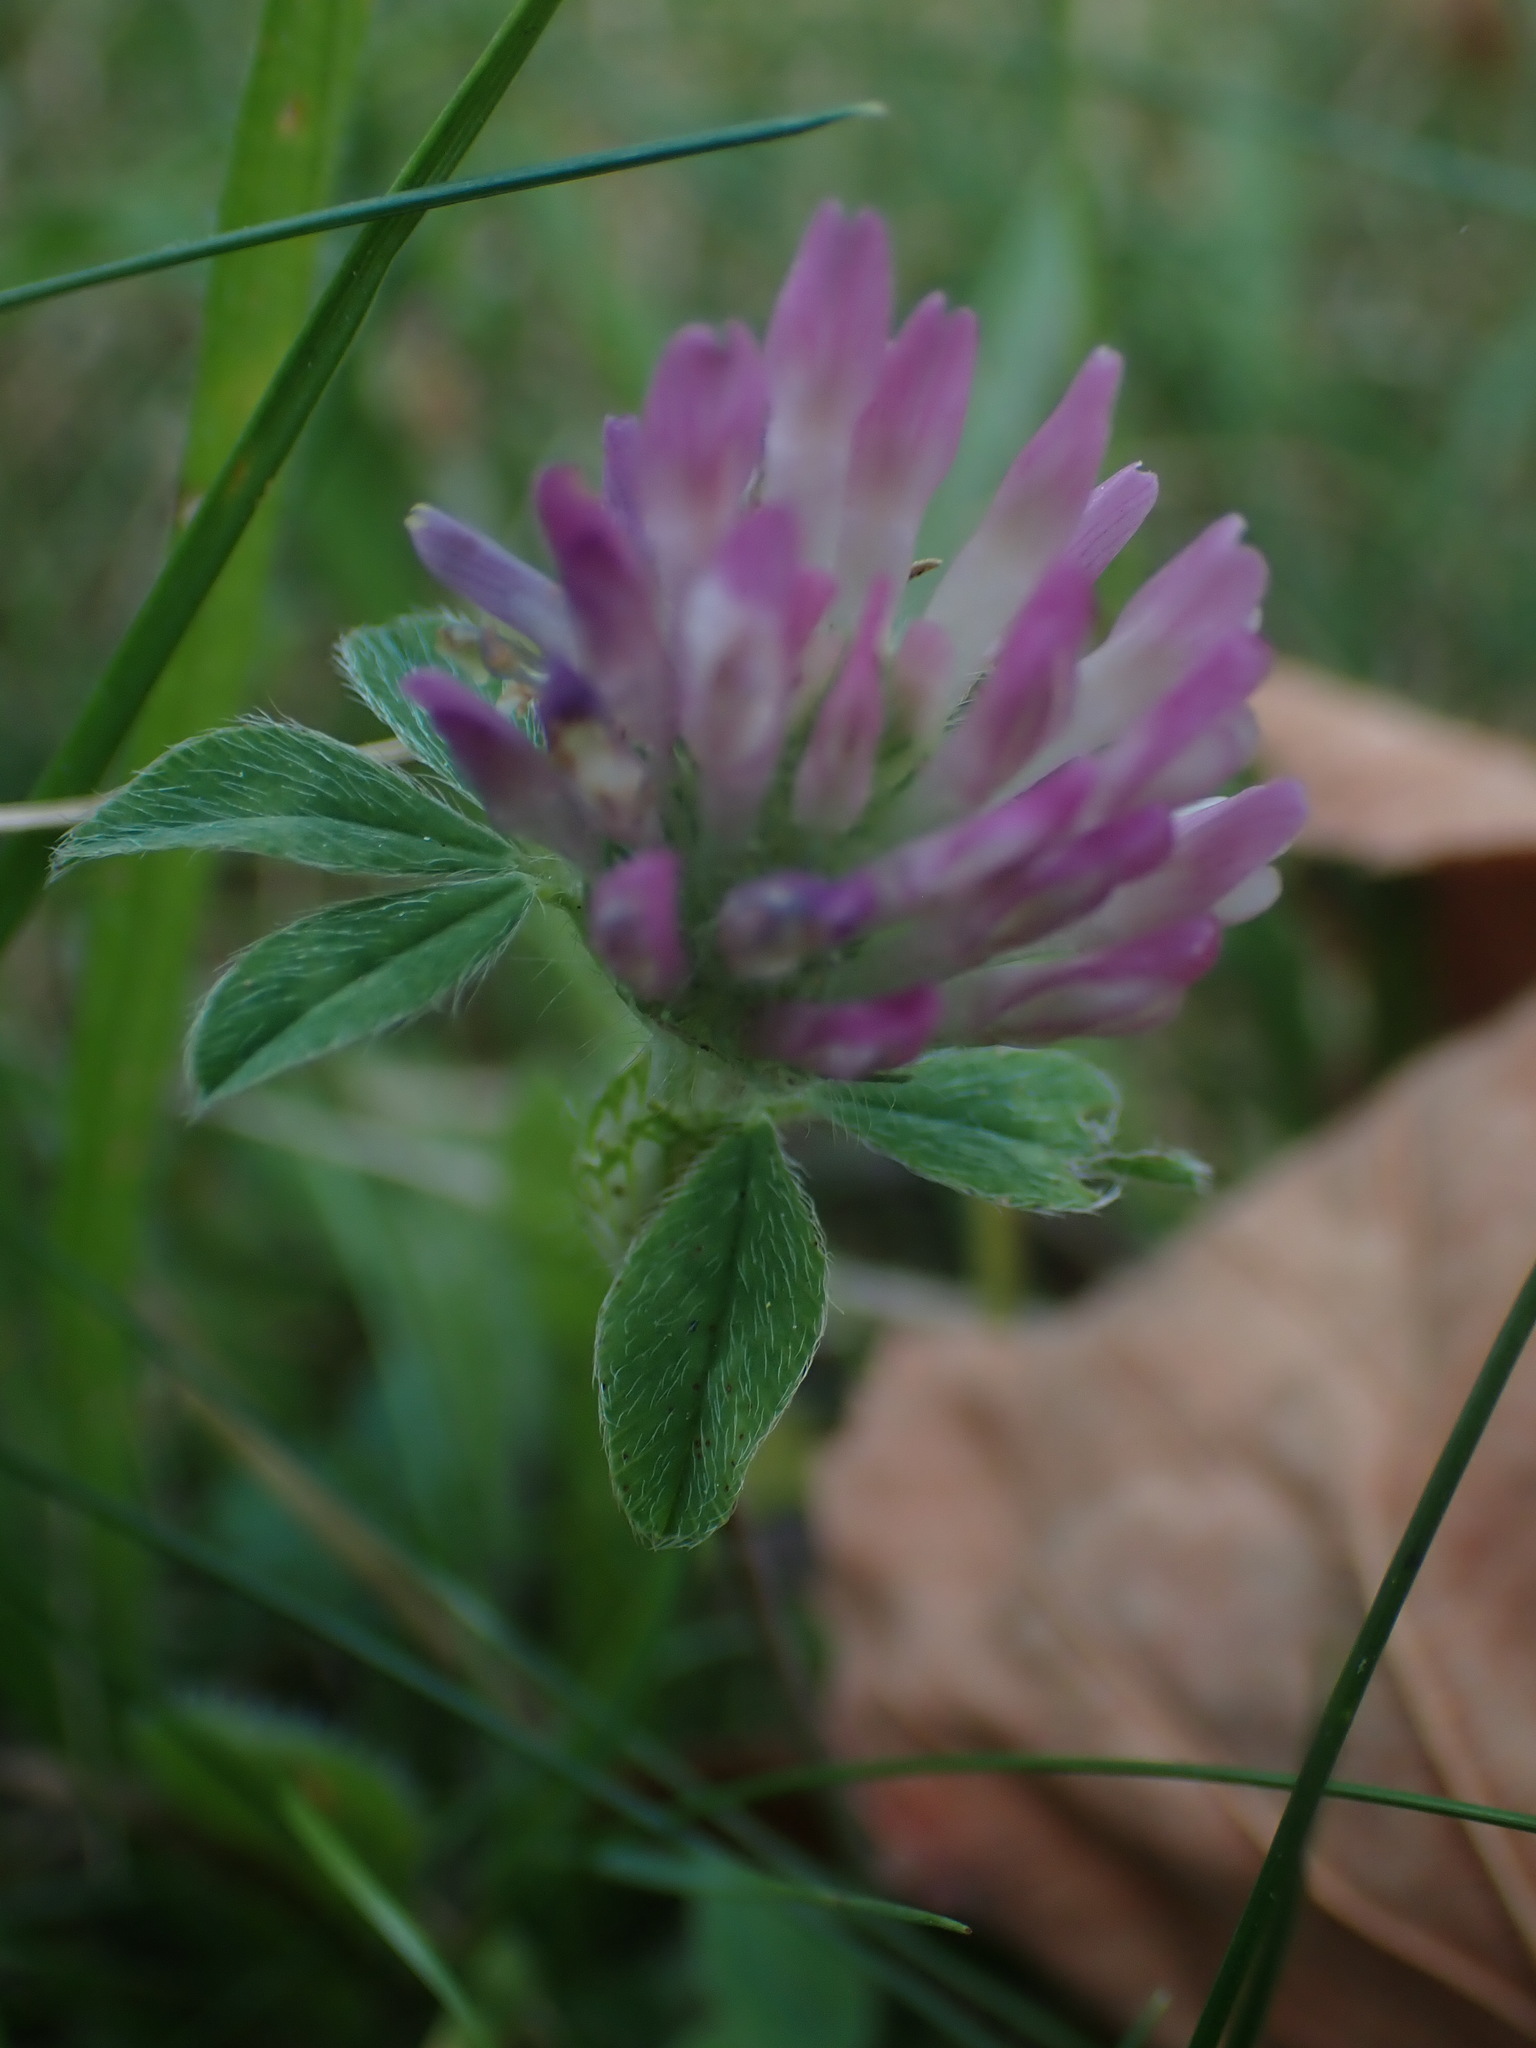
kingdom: Plantae
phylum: Tracheophyta
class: Magnoliopsida
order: Fabales
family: Fabaceae
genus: Trifolium
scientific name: Trifolium pratense
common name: Red clover
